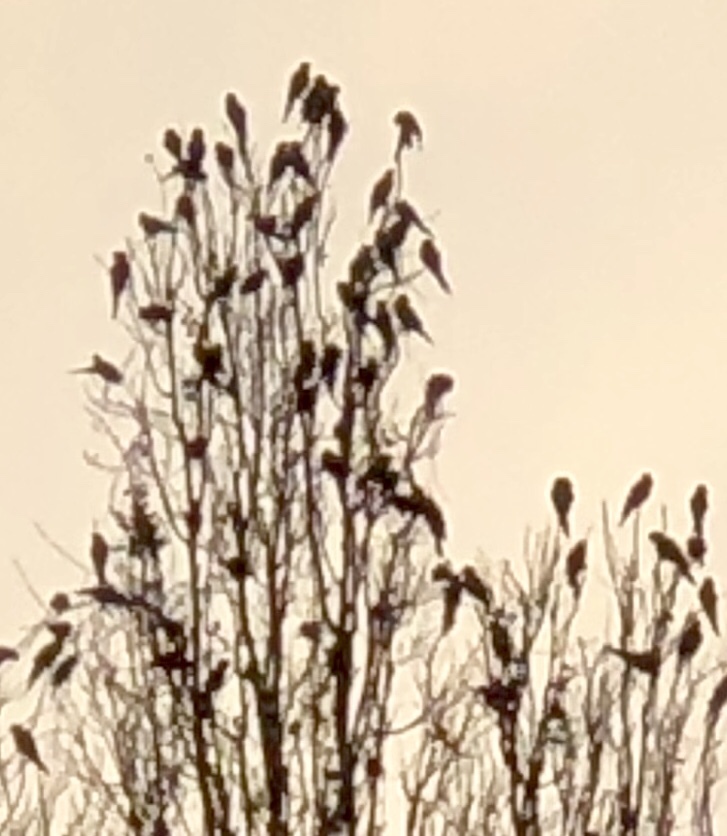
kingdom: Animalia
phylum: Chordata
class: Aves
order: Psittaciformes
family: Psittacidae
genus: Aratinga
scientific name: Aratinga erythrogenys
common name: Red-masked parakeet
